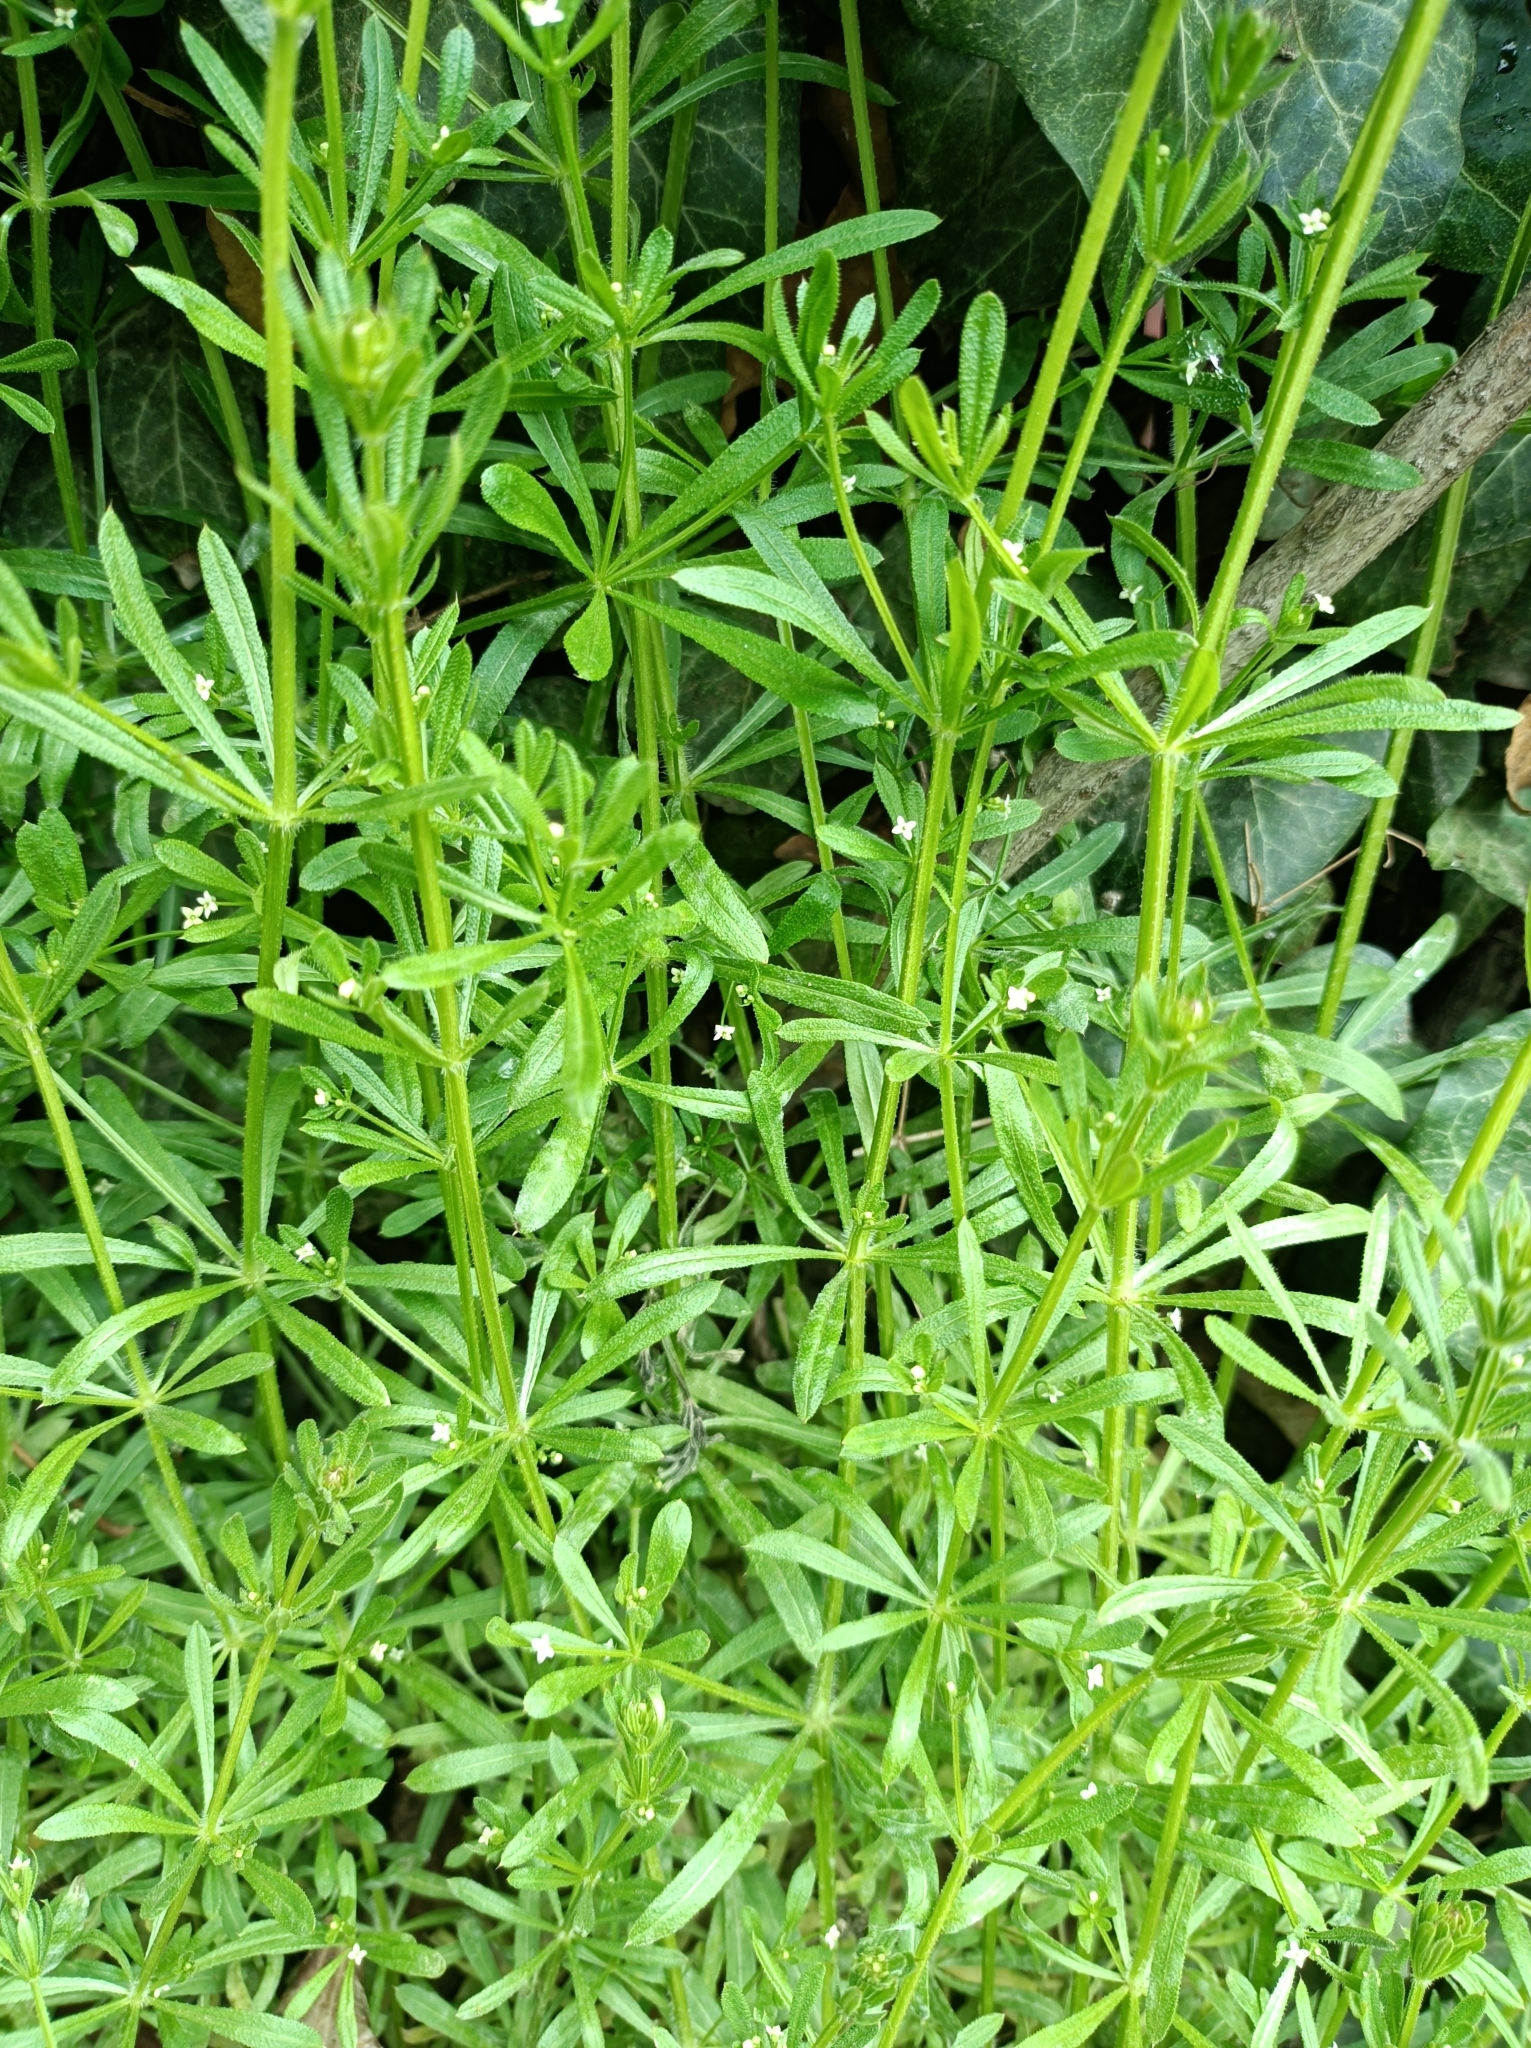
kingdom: Plantae
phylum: Tracheophyta
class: Magnoliopsida
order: Gentianales
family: Rubiaceae
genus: Galium
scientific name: Galium aparine
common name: Cleavers
